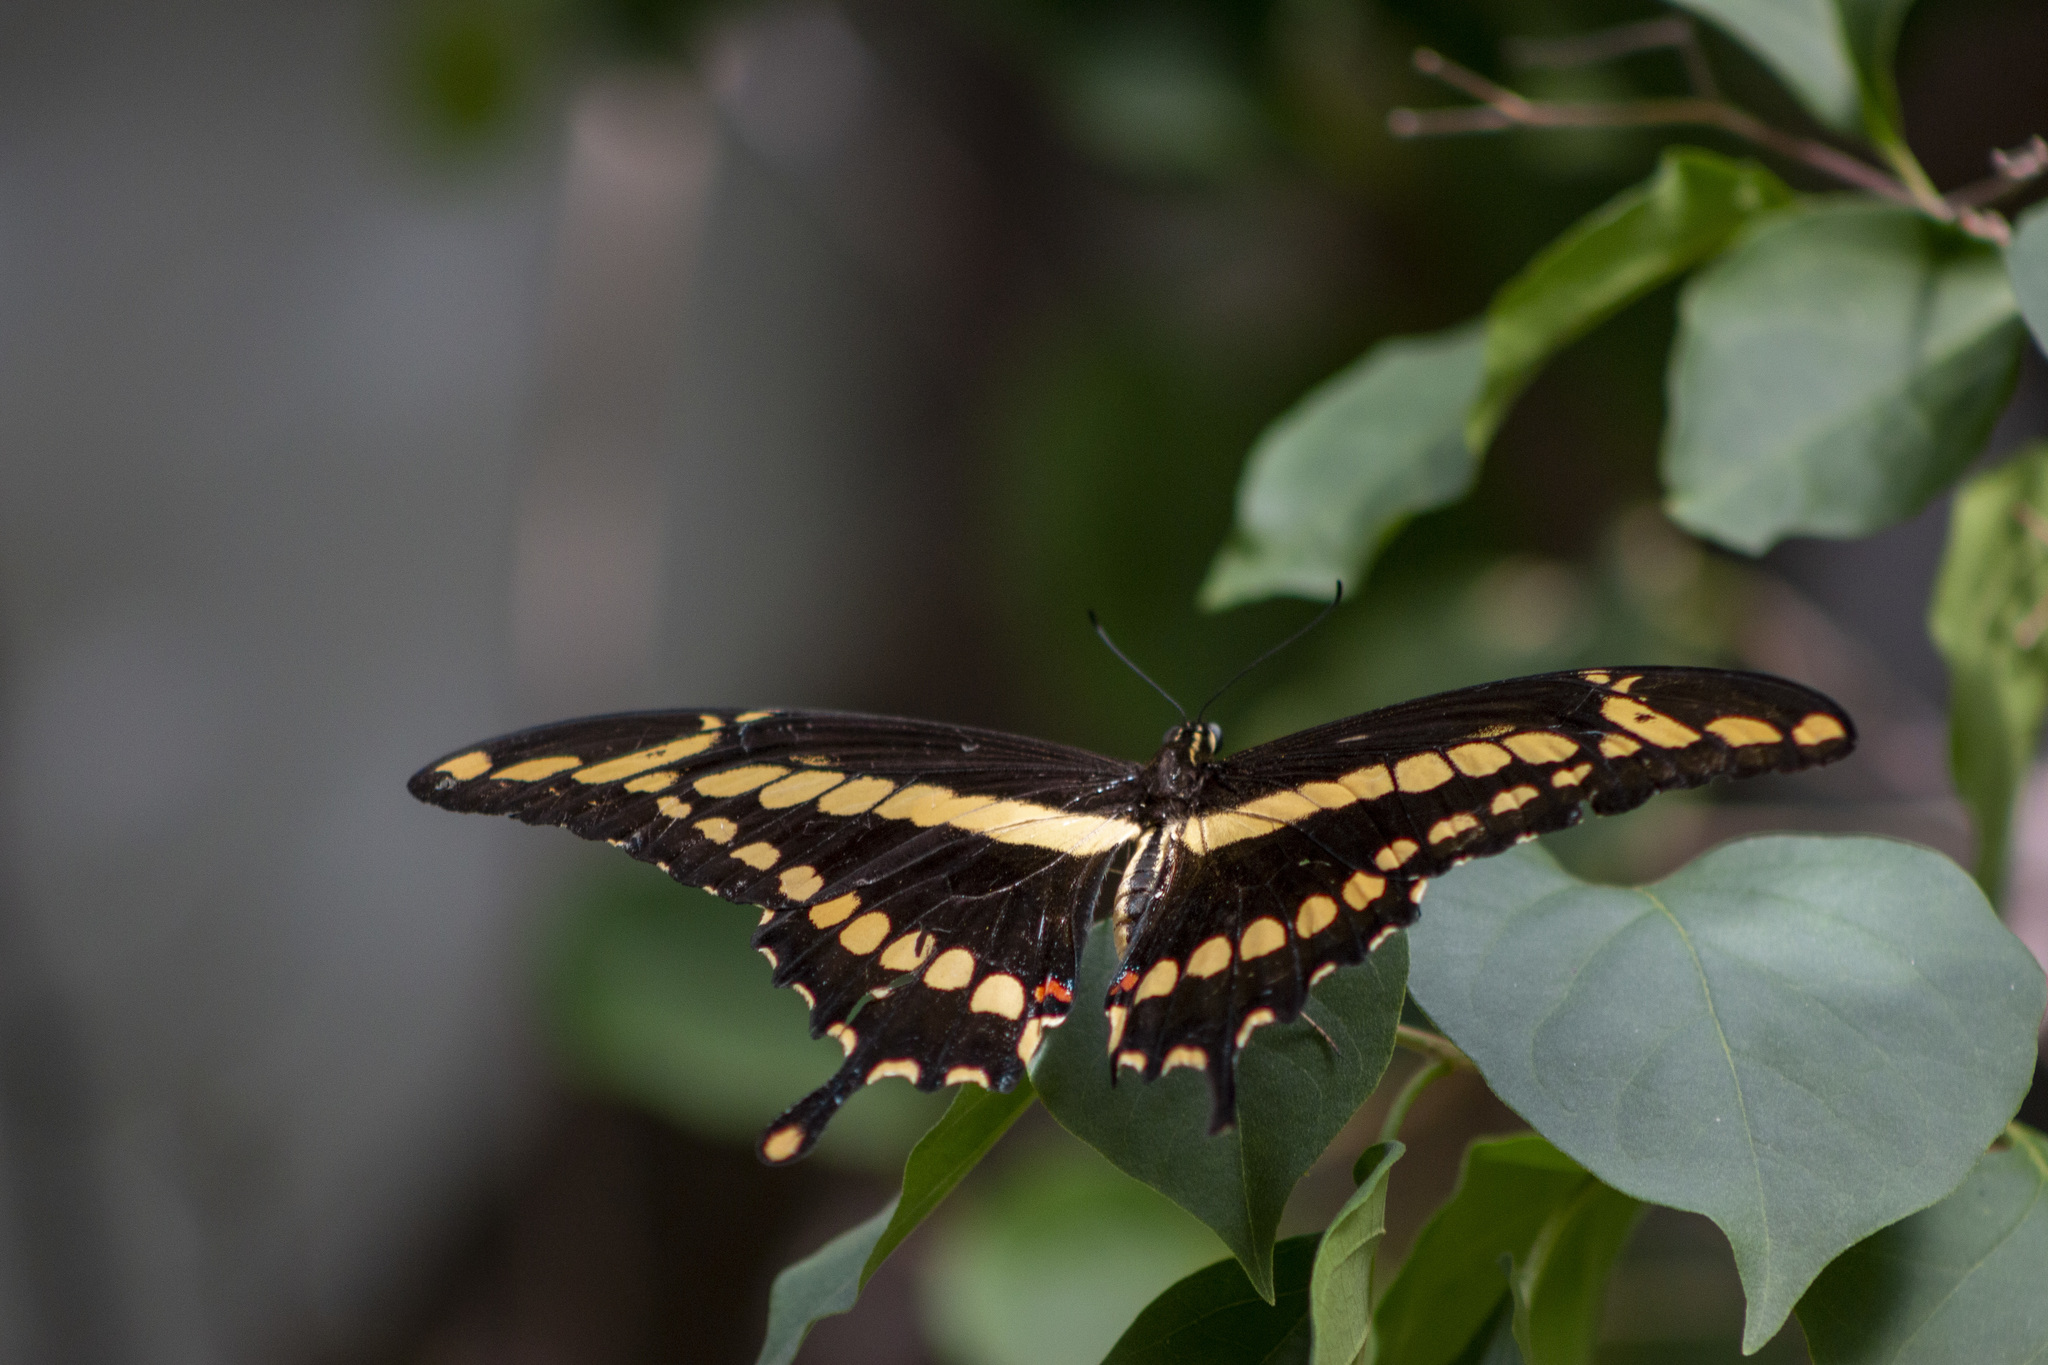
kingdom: Animalia
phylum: Arthropoda
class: Insecta
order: Lepidoptera
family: Papilionidae
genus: Papilio
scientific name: Papilio thoas
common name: King swallowtail
